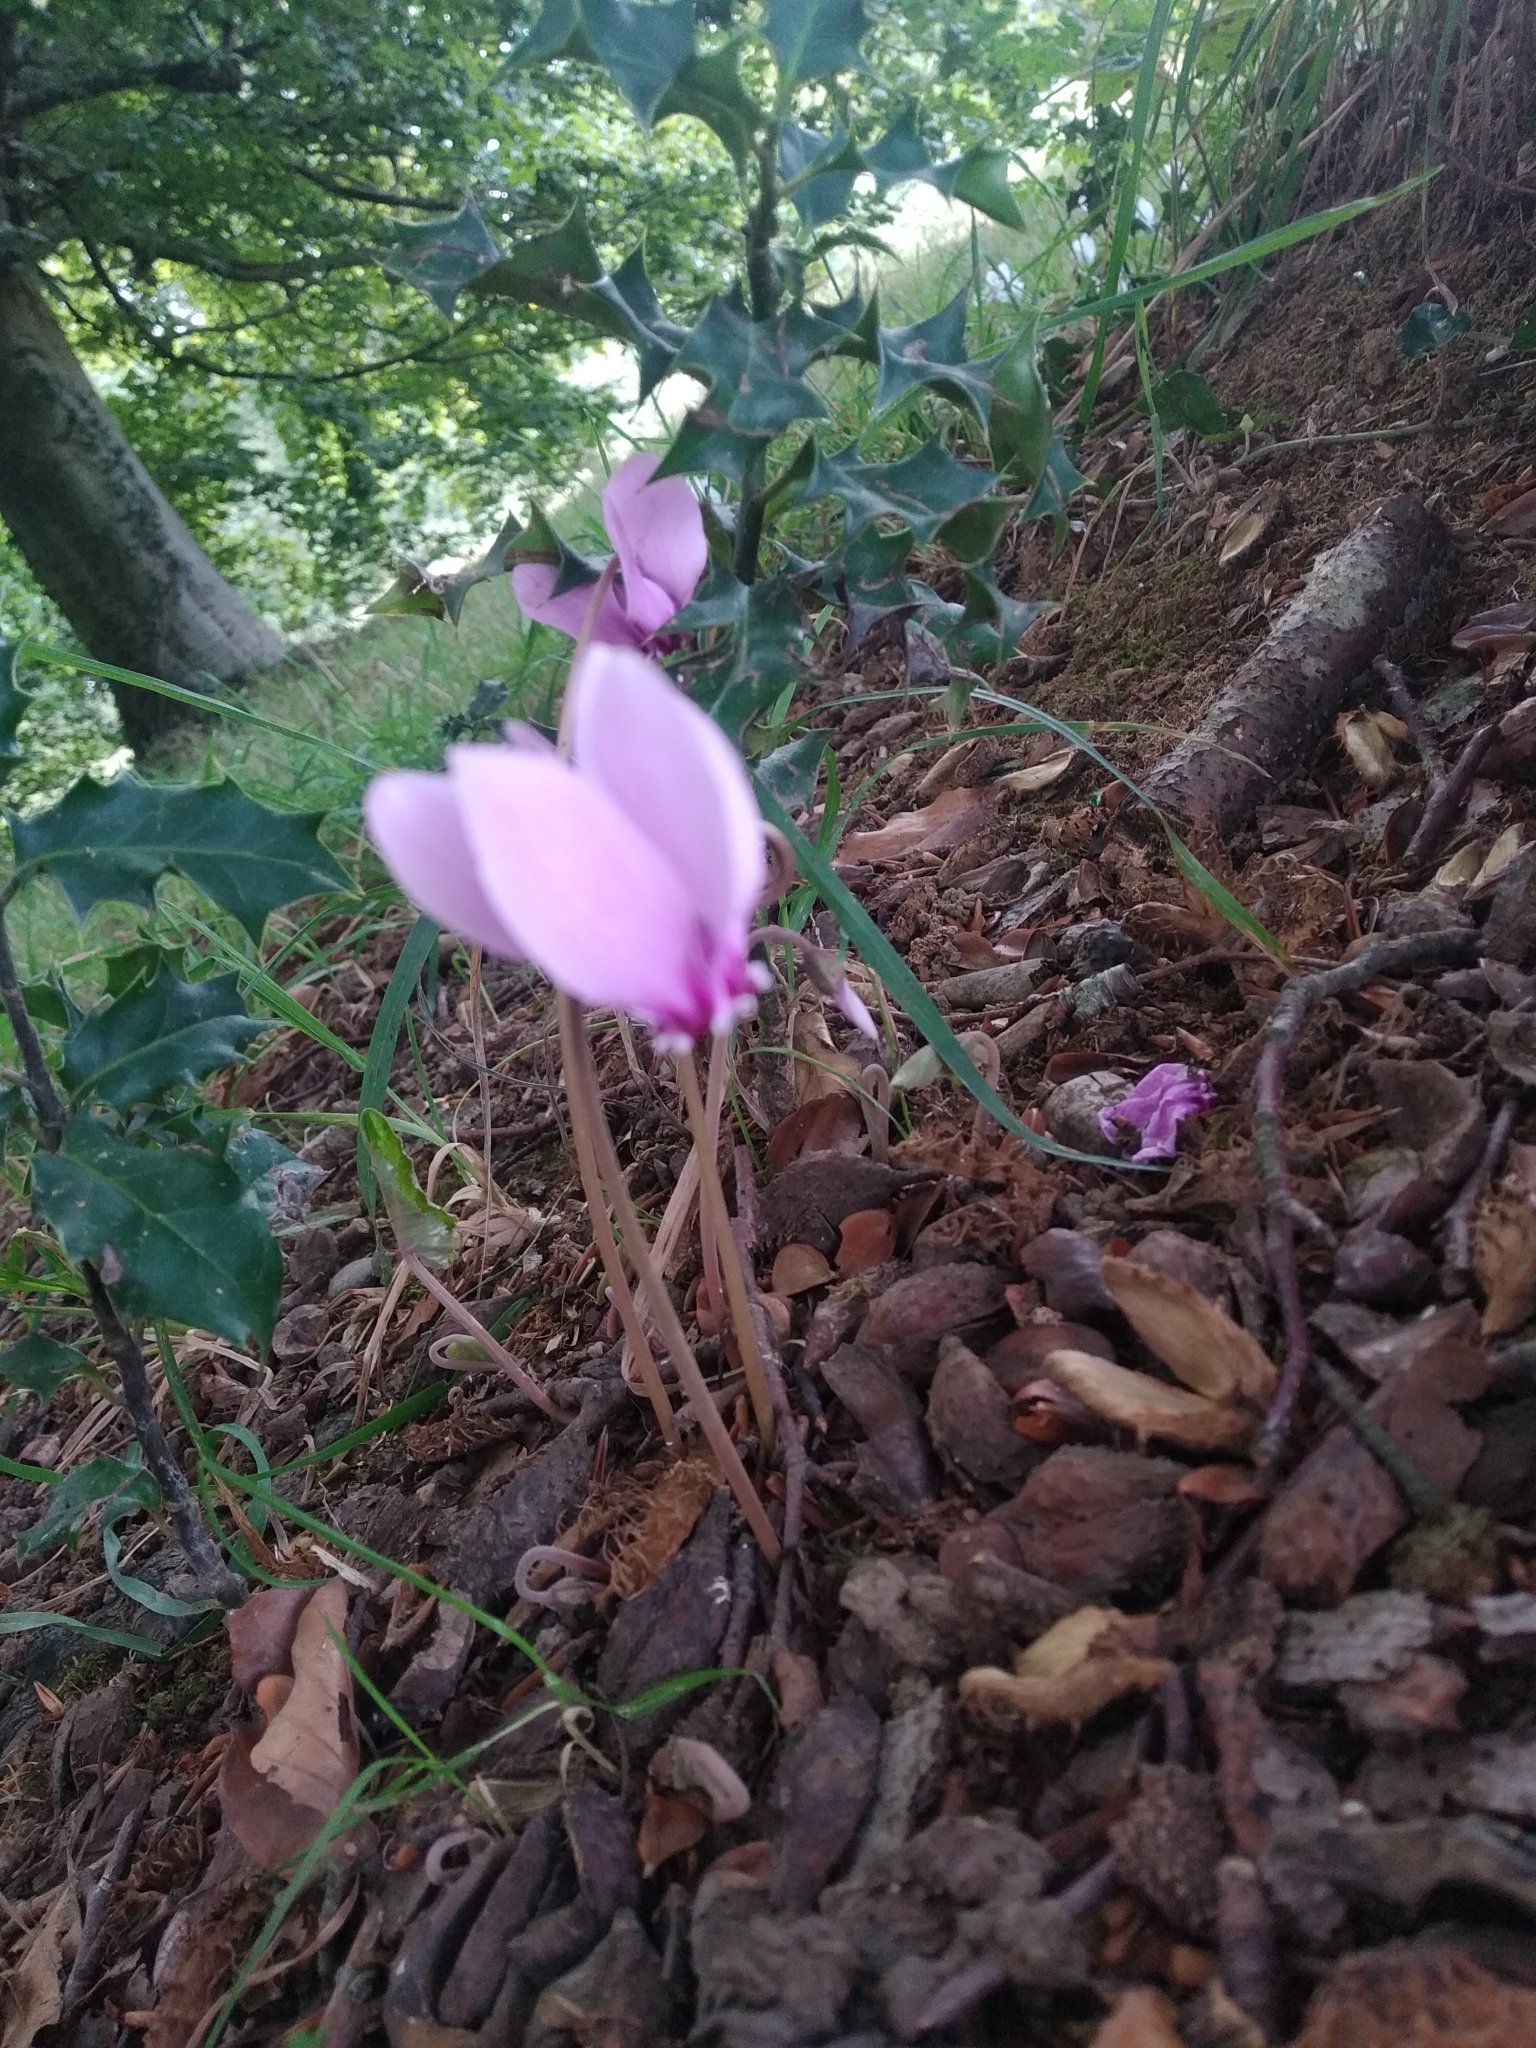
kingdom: Plantae
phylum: Tracheophyta
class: Magnoliopsida
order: Ericales
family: Primulaceae
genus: Cyclamen
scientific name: Cyclamen hederifolium
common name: Sowbread
